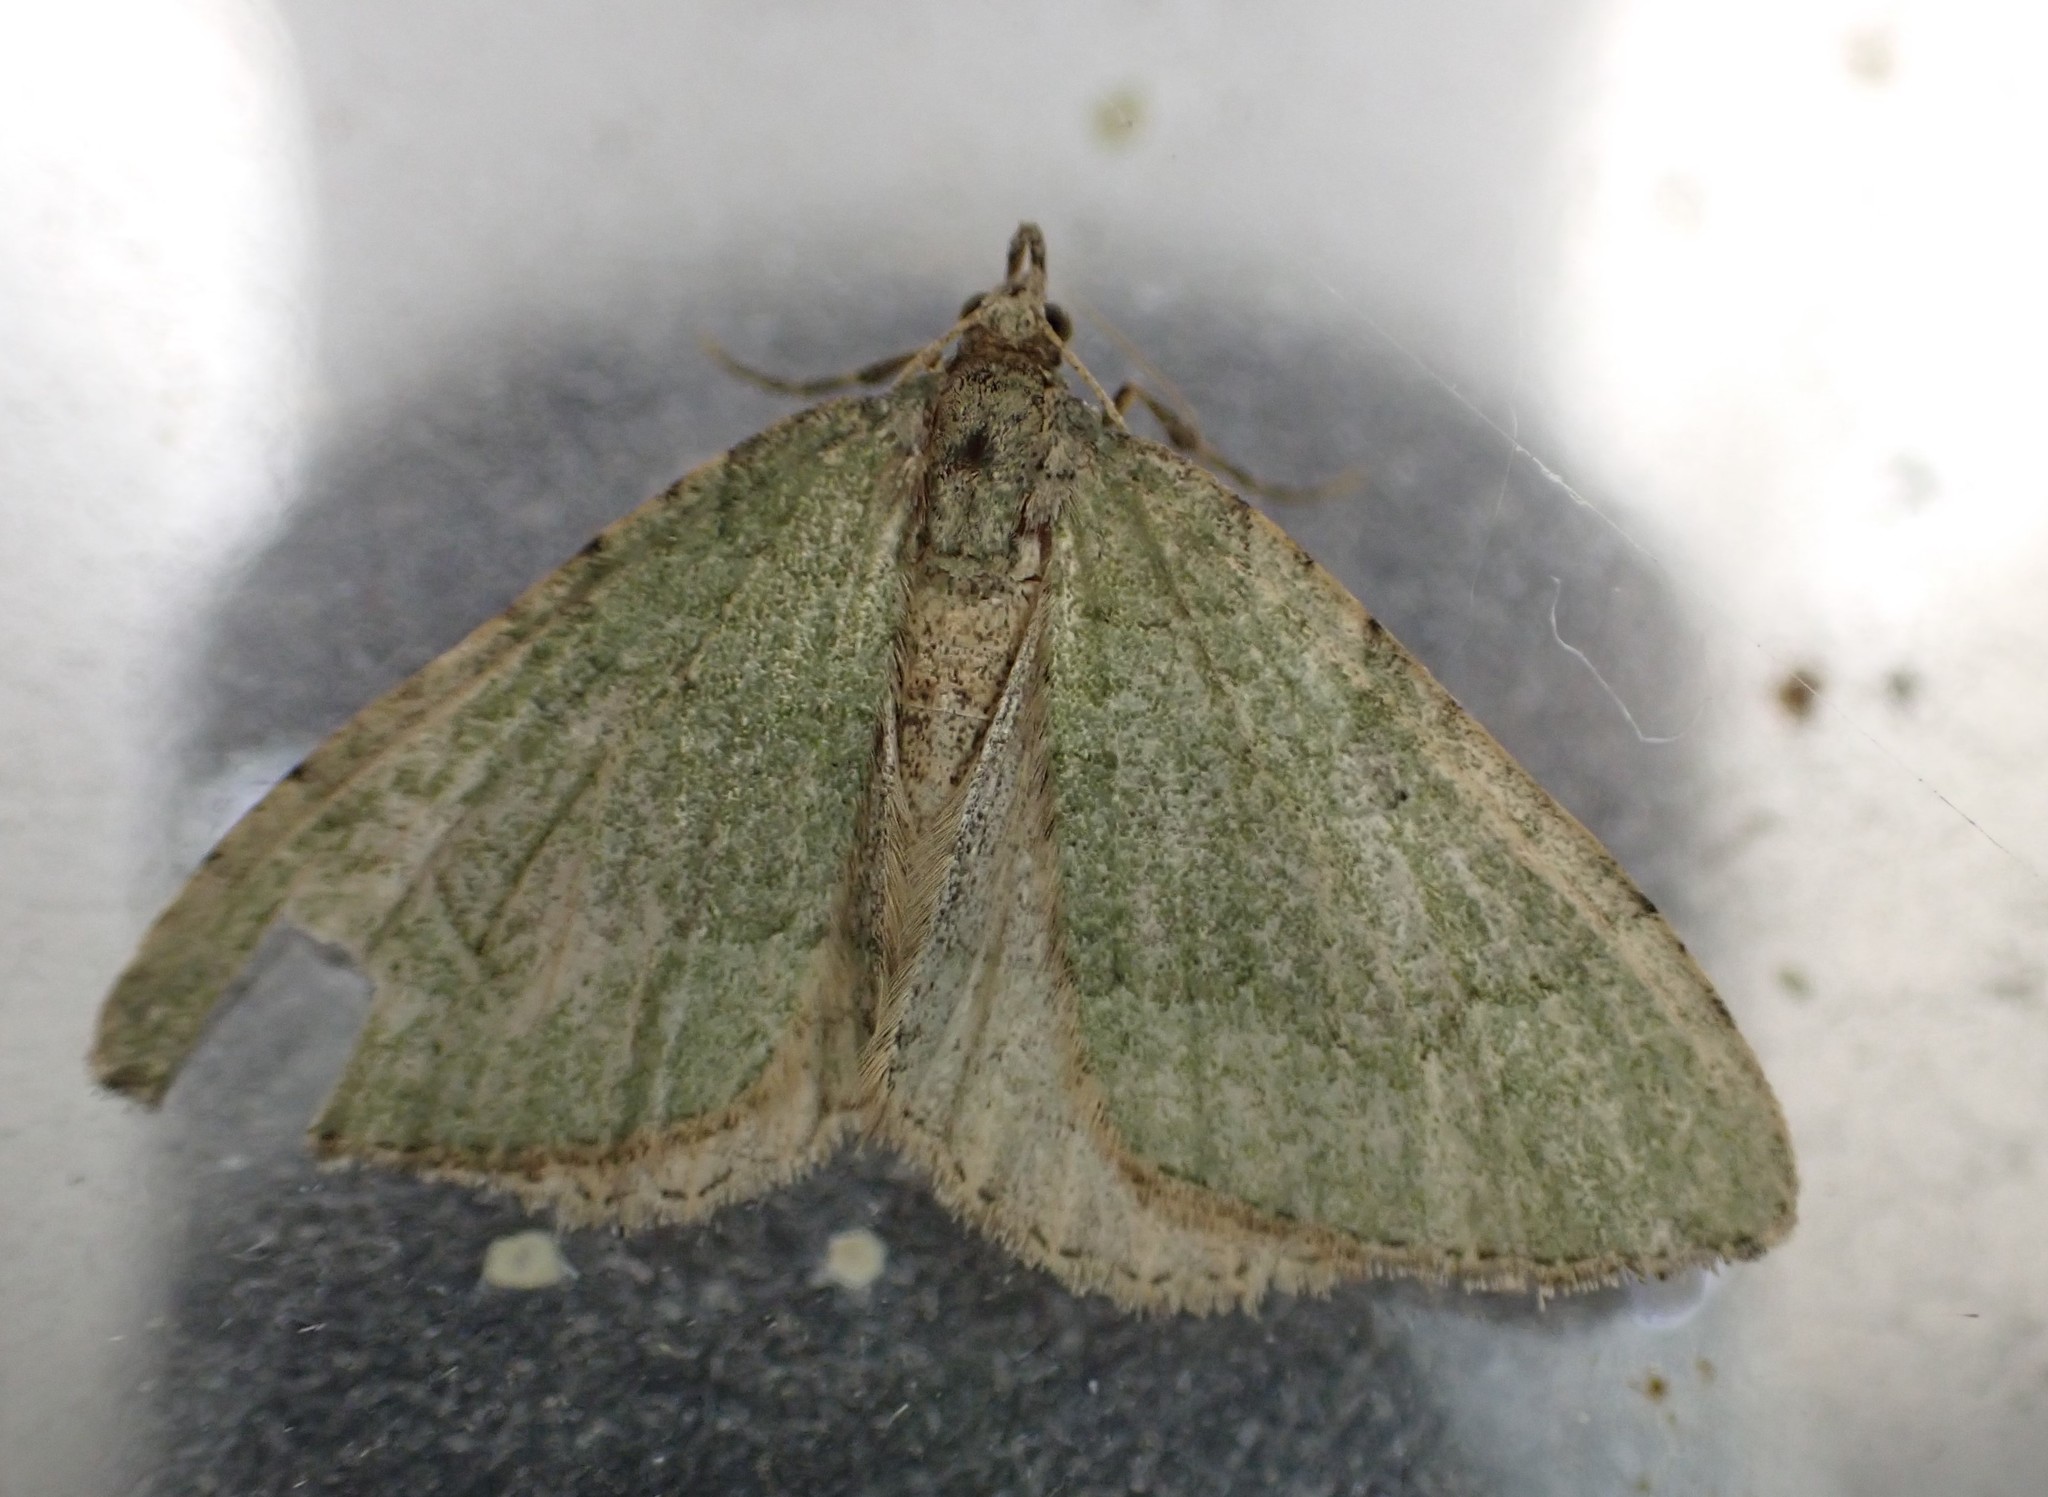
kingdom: Animalia
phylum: Arthropoda
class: Insecta
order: Lepidoptera
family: Geometridae
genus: Epyaxa
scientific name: Epyaxa rosearia
